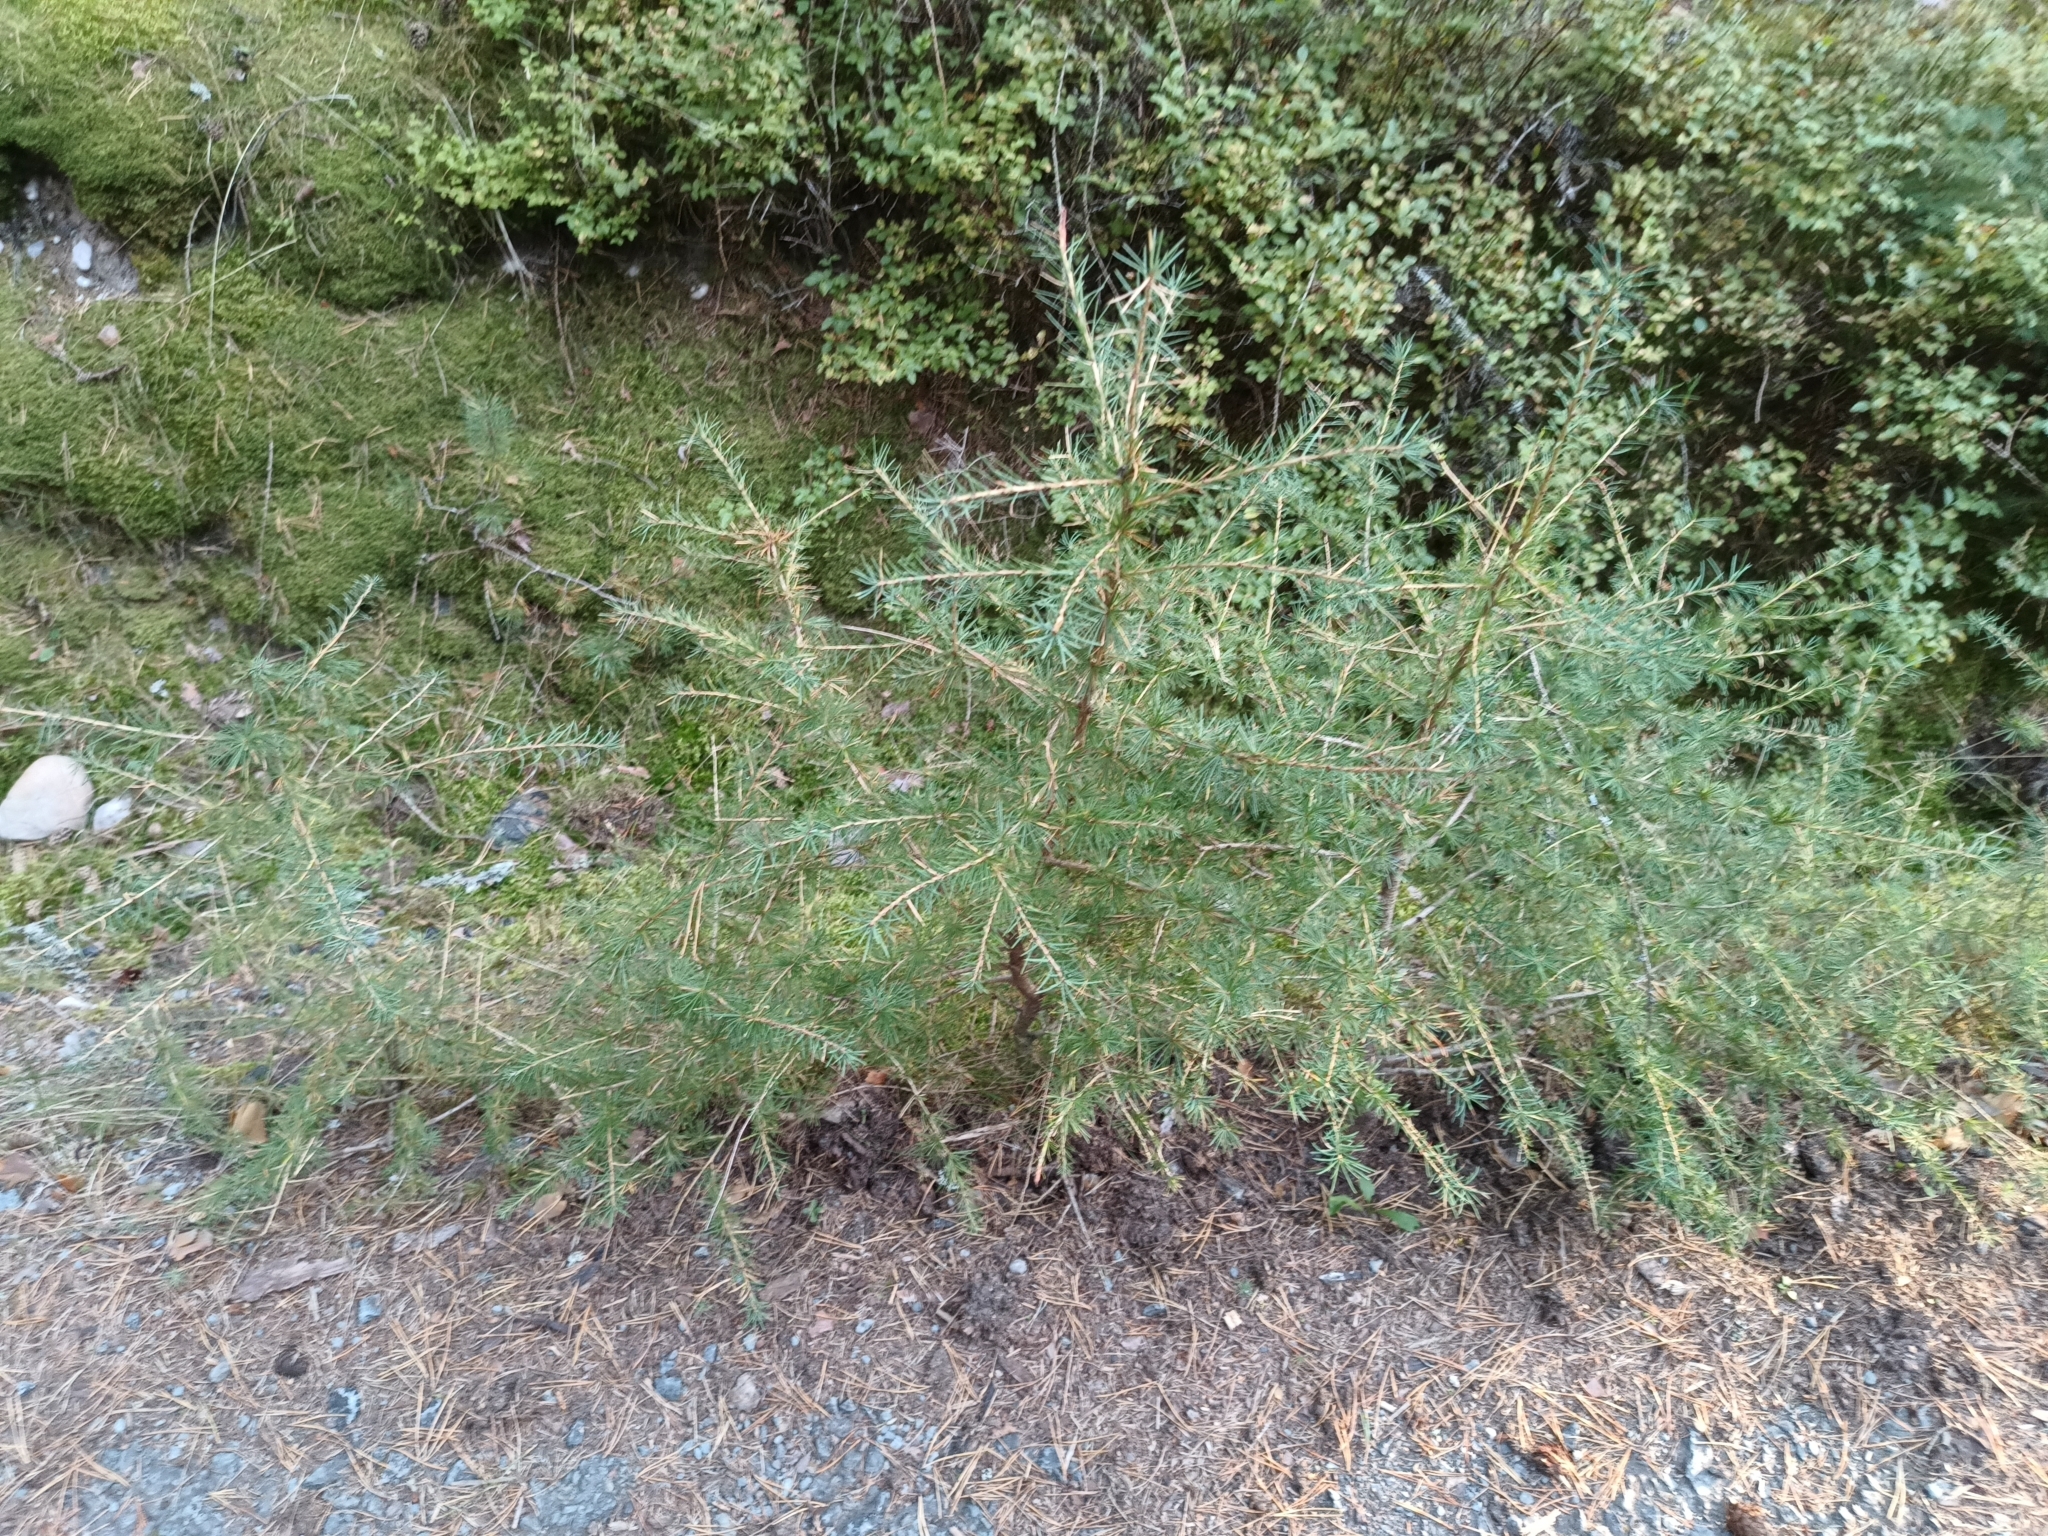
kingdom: Plantae
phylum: Tracheophyta
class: Pinopsida
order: Pinales
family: Pinaceae
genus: Larix
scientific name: Larix decidua
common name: European larch
